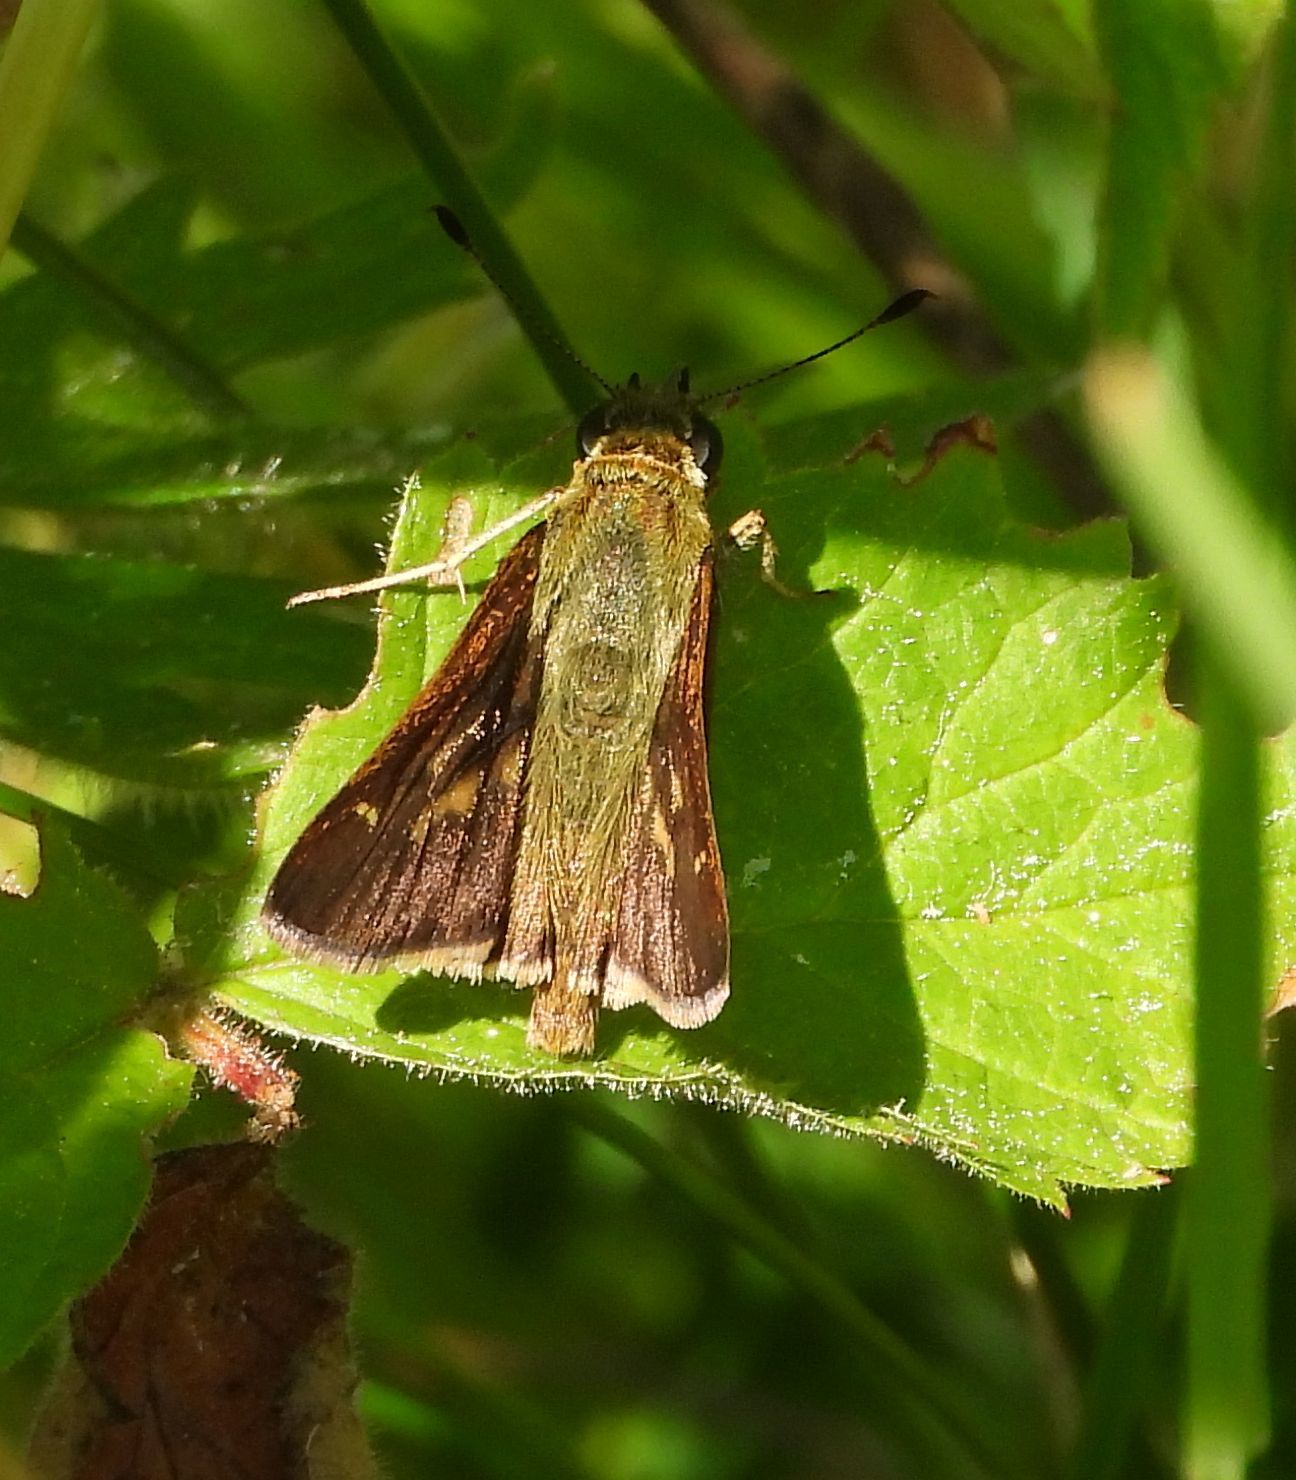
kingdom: Animalia
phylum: Arthropoda
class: Insecta
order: Lepidoptera
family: Hesperiidae
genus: Vernia
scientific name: Vernia verna
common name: Little glassywing
